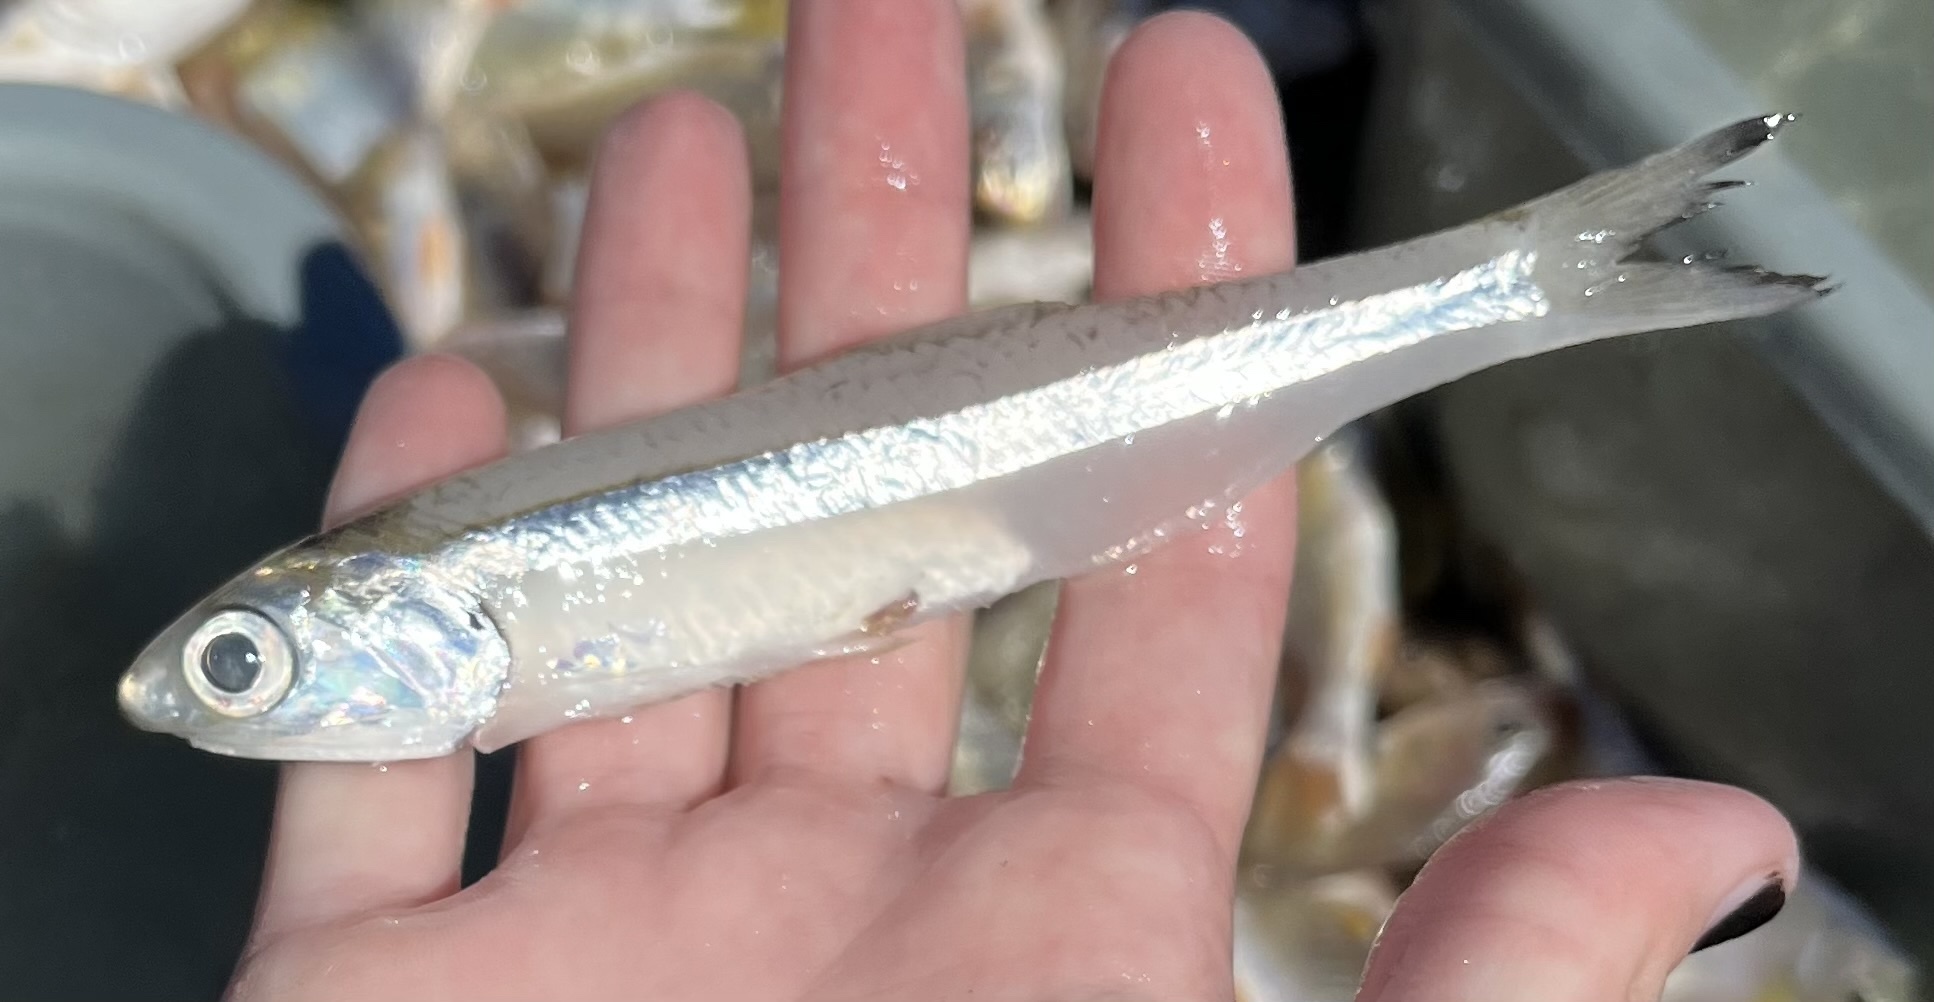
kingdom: Animalia
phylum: Chordata
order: Clupeiformes
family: Engraulidae
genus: Anchoa
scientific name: Anchoa hepsetus
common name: Striped anchovy
